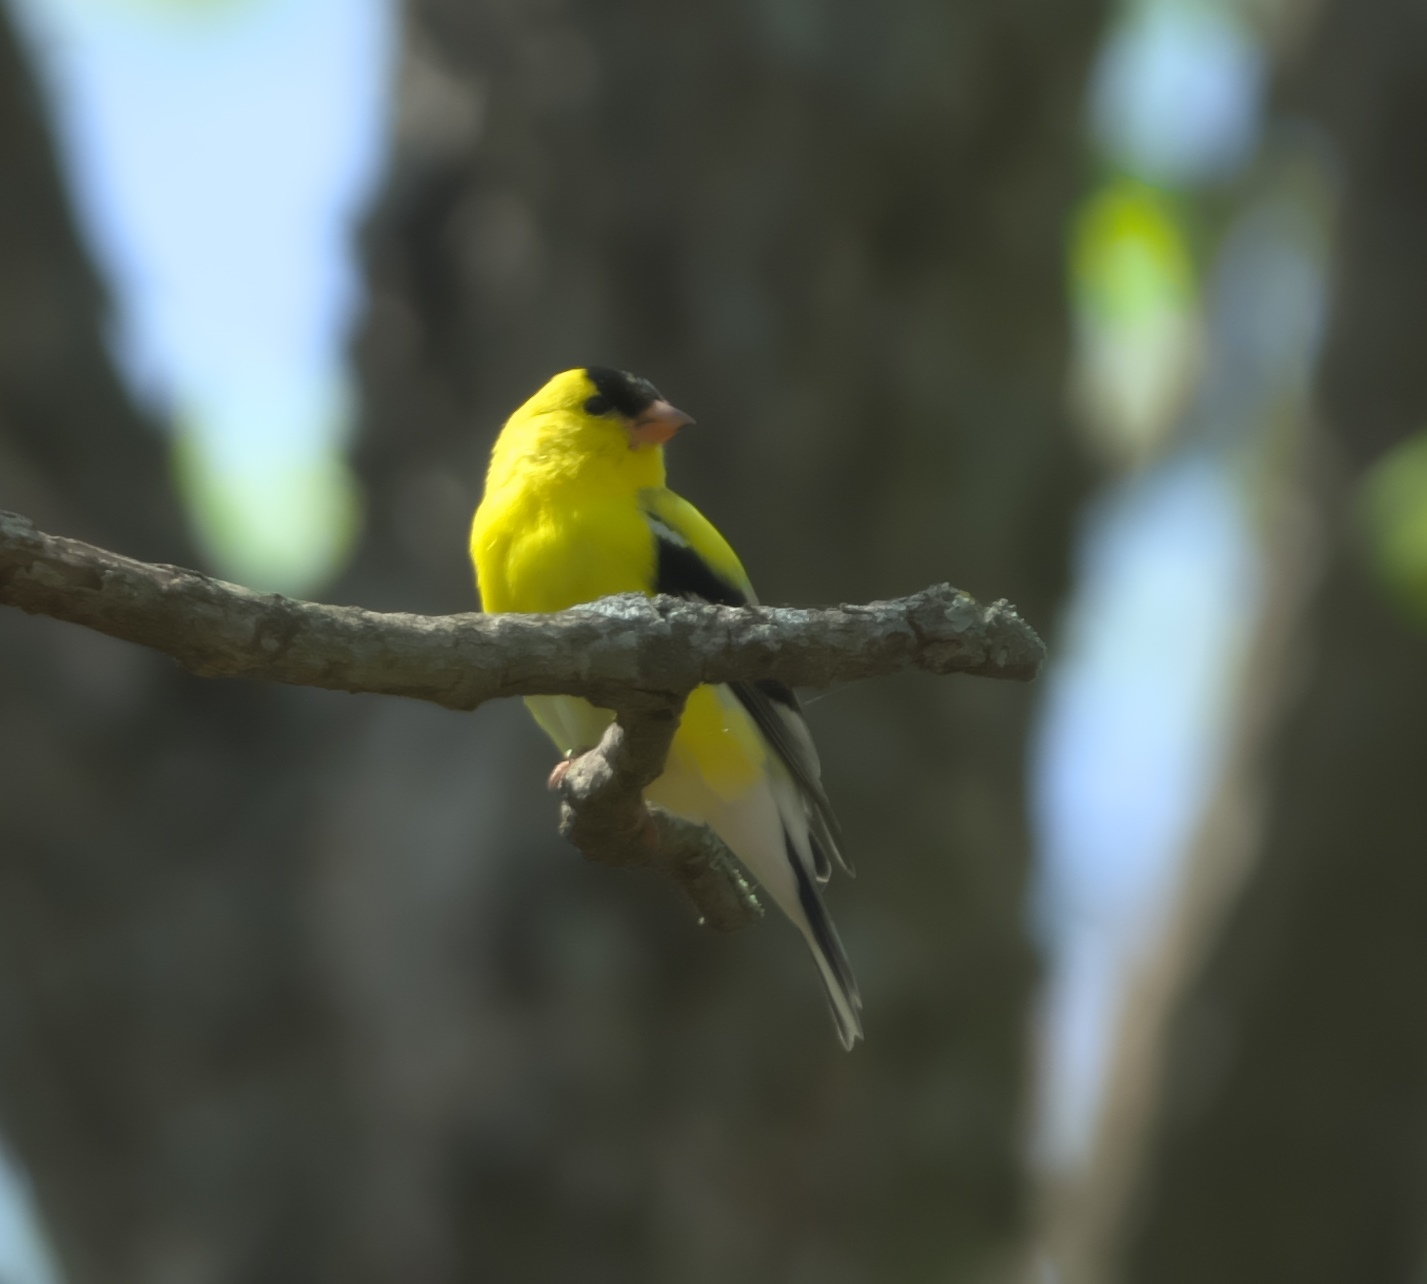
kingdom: Animalia
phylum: Chordata
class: Aves
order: Passeriformes
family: Fringillidae
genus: Spinus
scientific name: Spinus tristis
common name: American goldfinch
